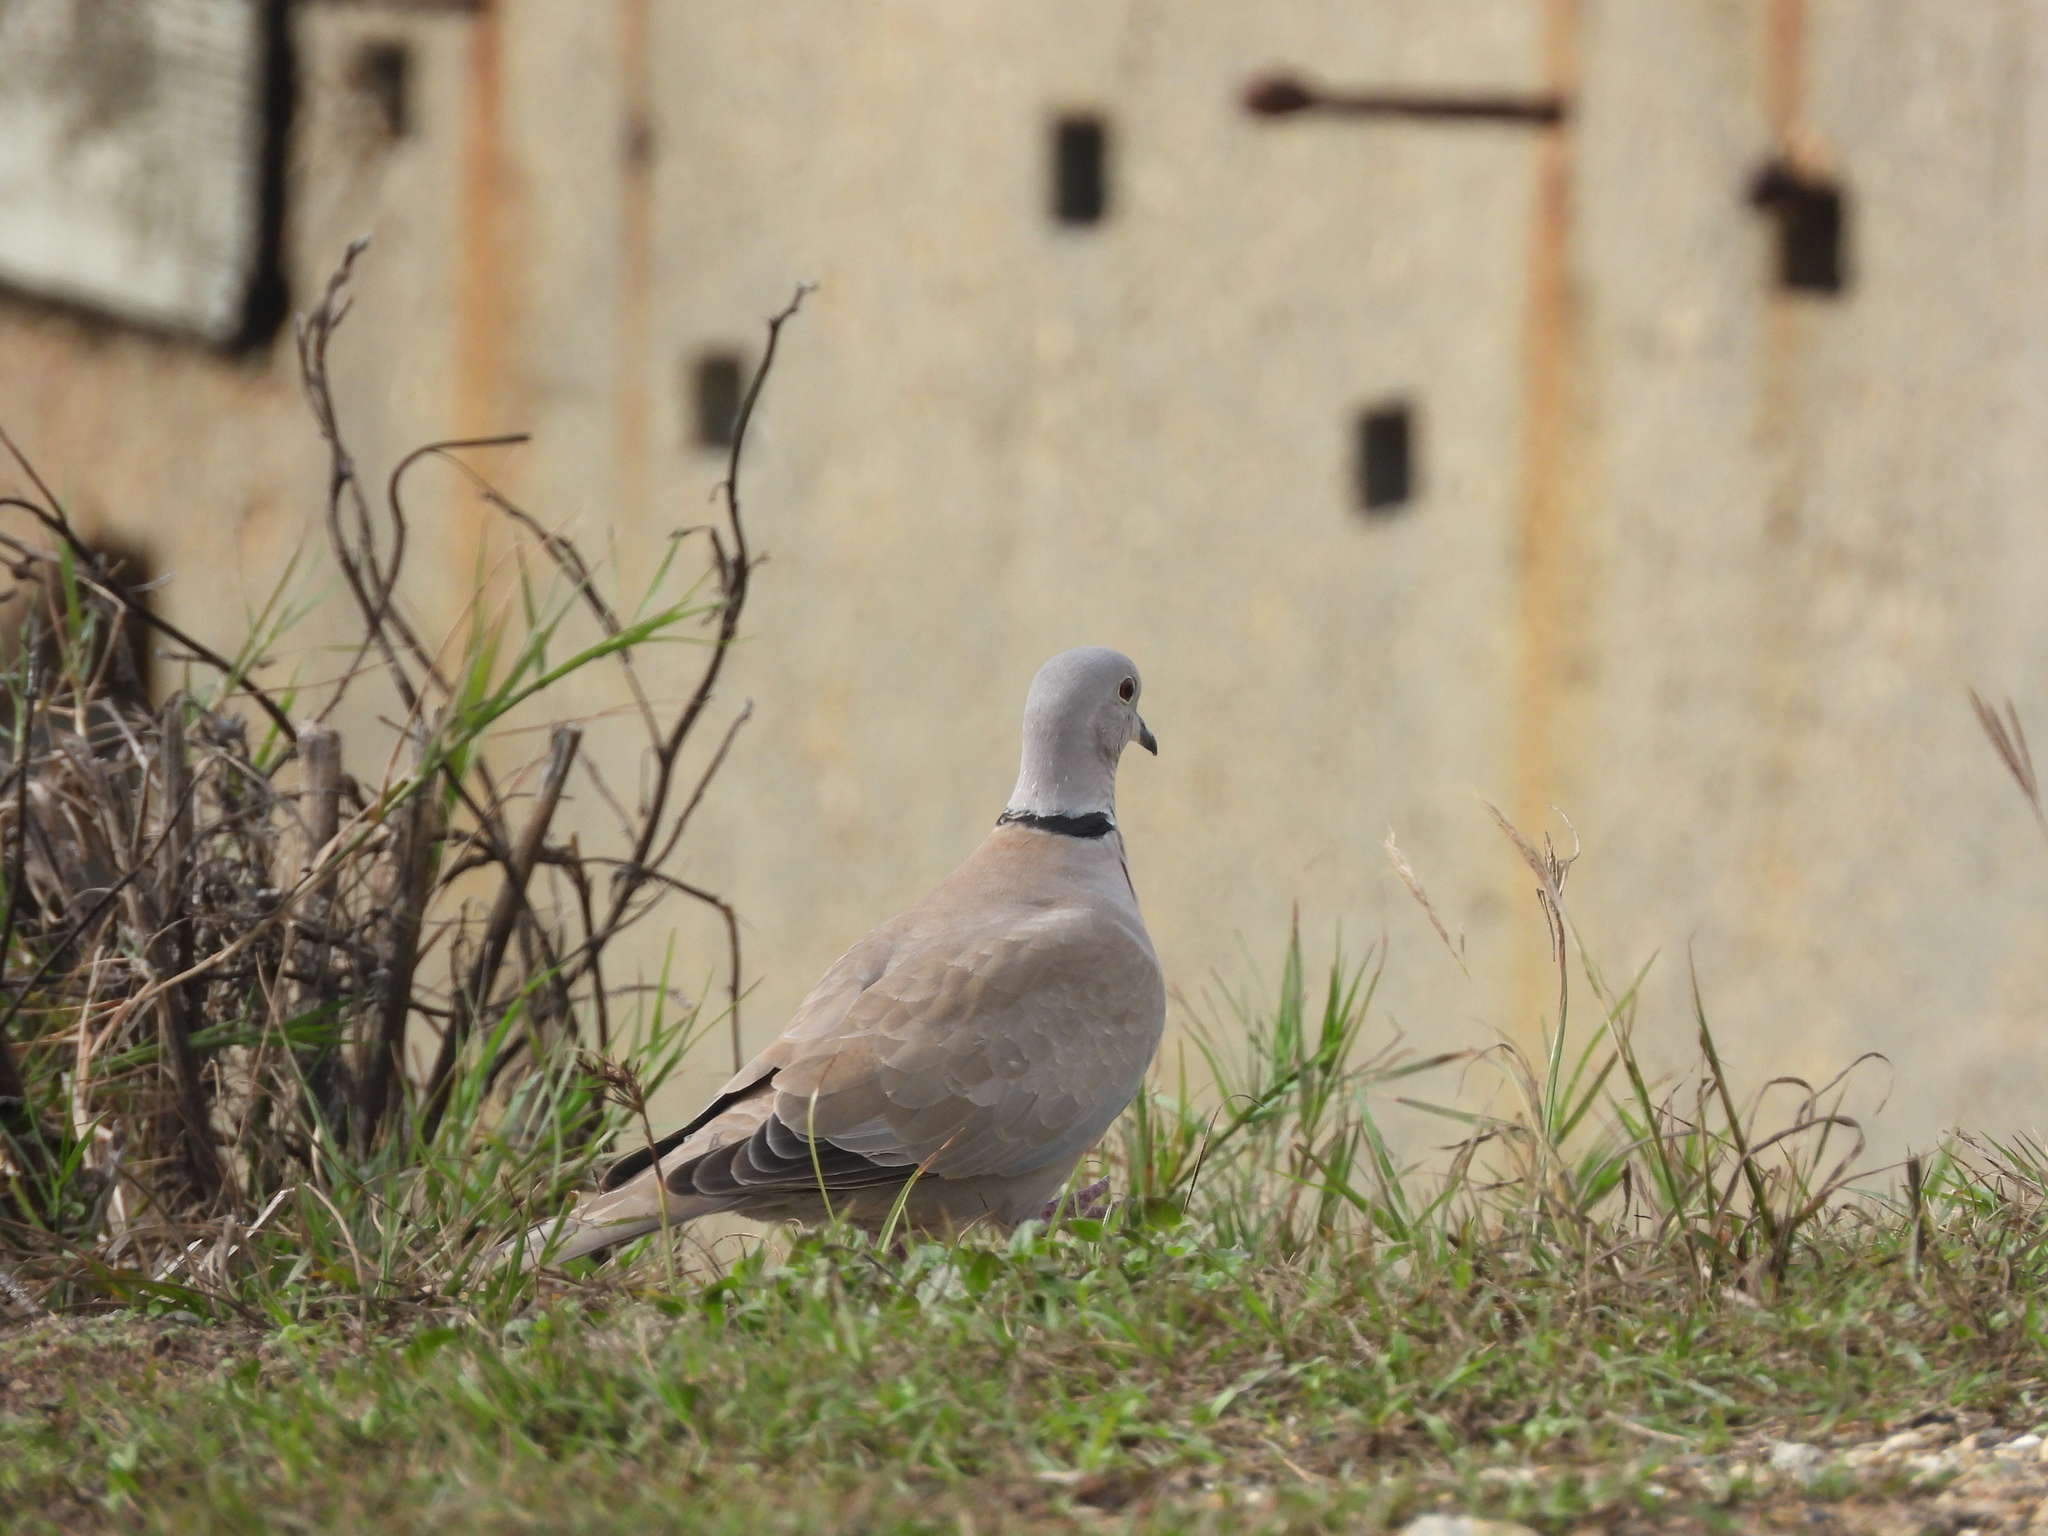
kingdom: Animalia
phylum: Chordata
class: Aves
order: Columbiformes
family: Columbidae
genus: Streptopelia
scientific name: Streptopelia decaocto
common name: Eurasian collared dove
